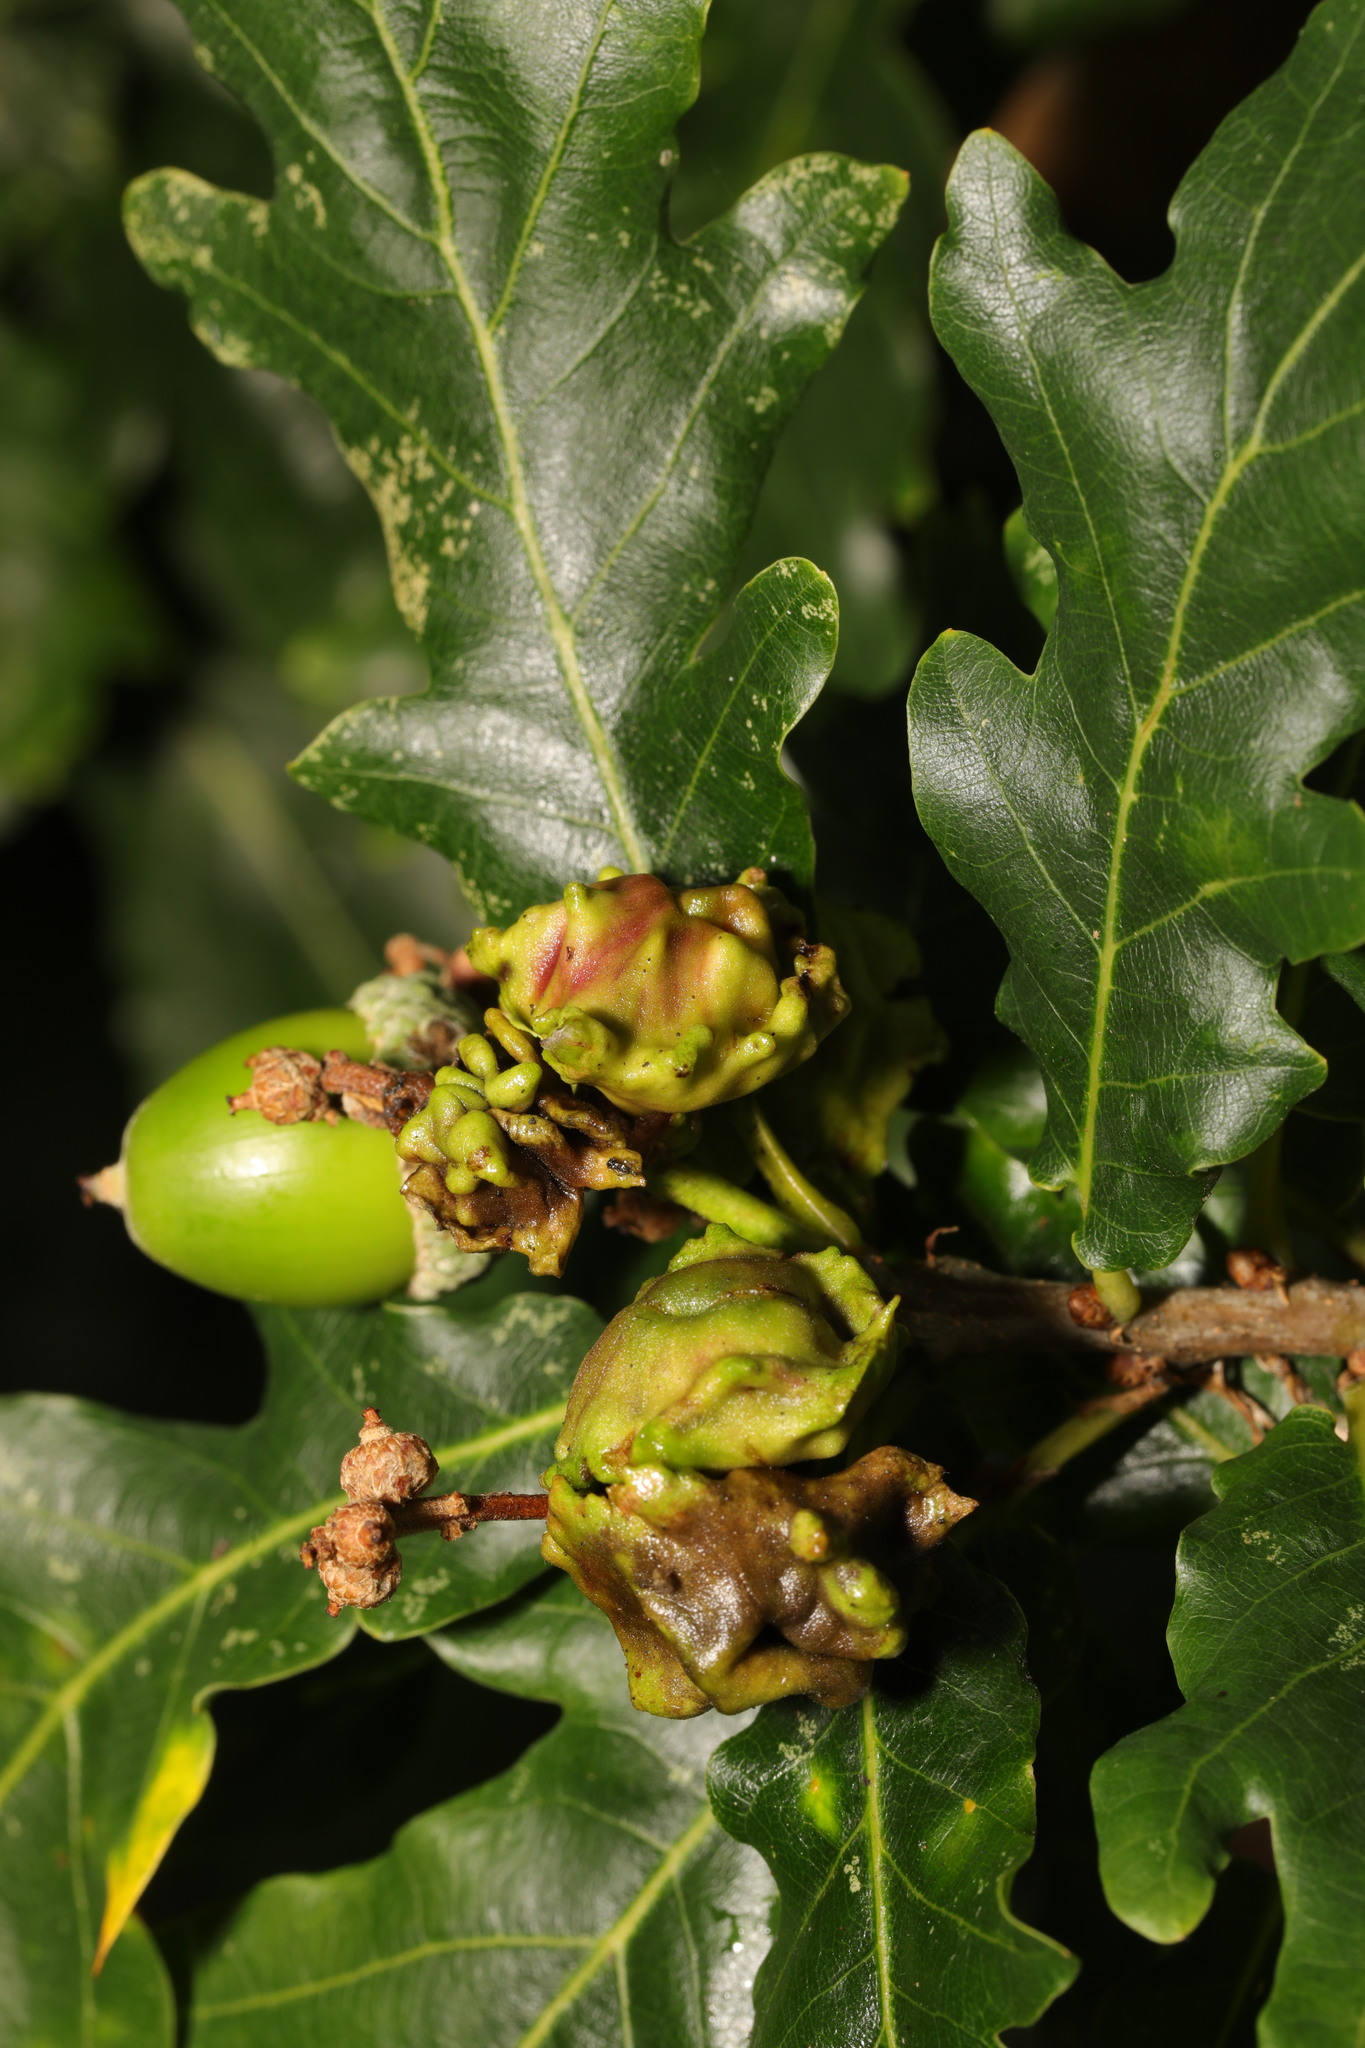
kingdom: Animalia
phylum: Arthropoda
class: Insecta
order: Hymenoptera
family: Cynipidae
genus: Andricus
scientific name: Andricus quercuscalicis
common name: Knopper gall
